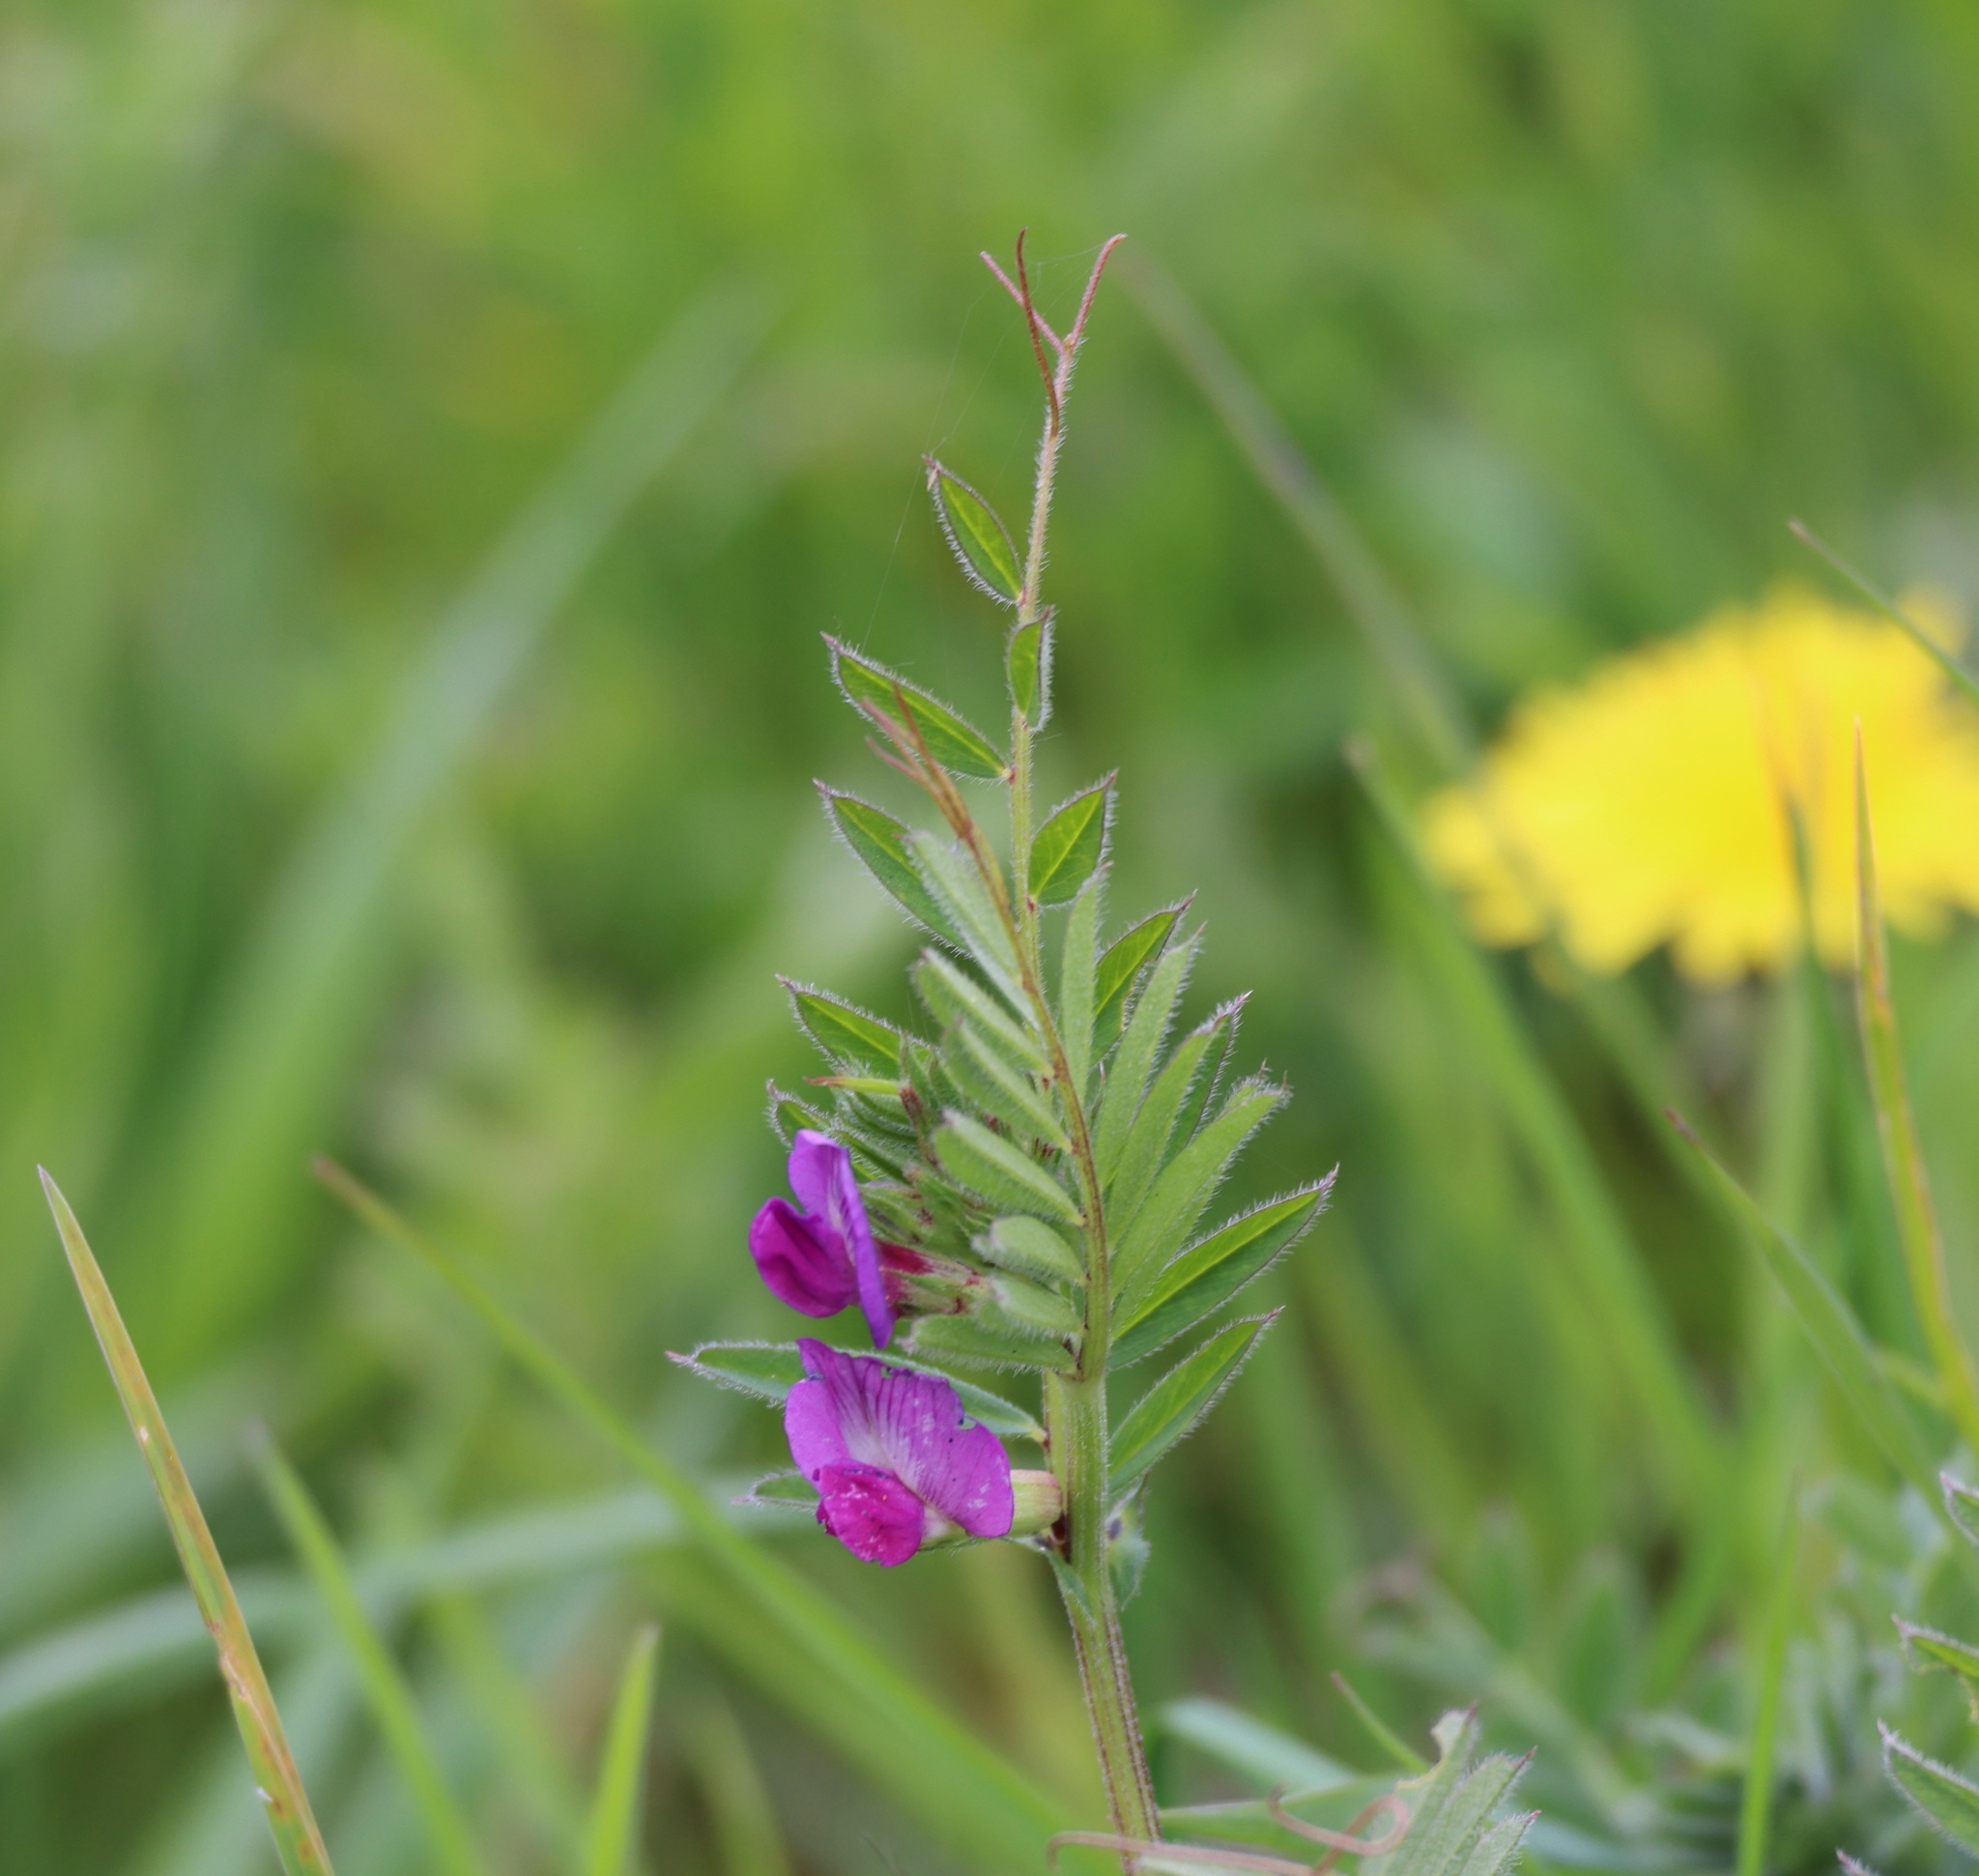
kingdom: Plantae
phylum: Tracheophyta
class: Magnoliopsida
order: Fabales
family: Fabaceae
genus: Vicia
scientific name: Vicia sativa
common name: Garden vetch
